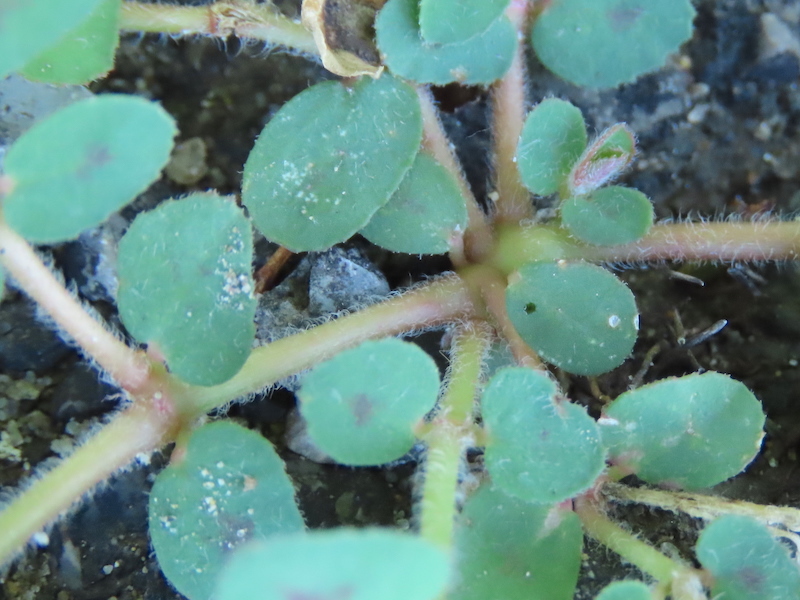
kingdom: Plantae
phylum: Tracheophyta
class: Magnoliopsida
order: Malpighiales
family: Euphorbiaceae
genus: Euphorbia
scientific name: Euphorbia maculata
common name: Spotted spurge
